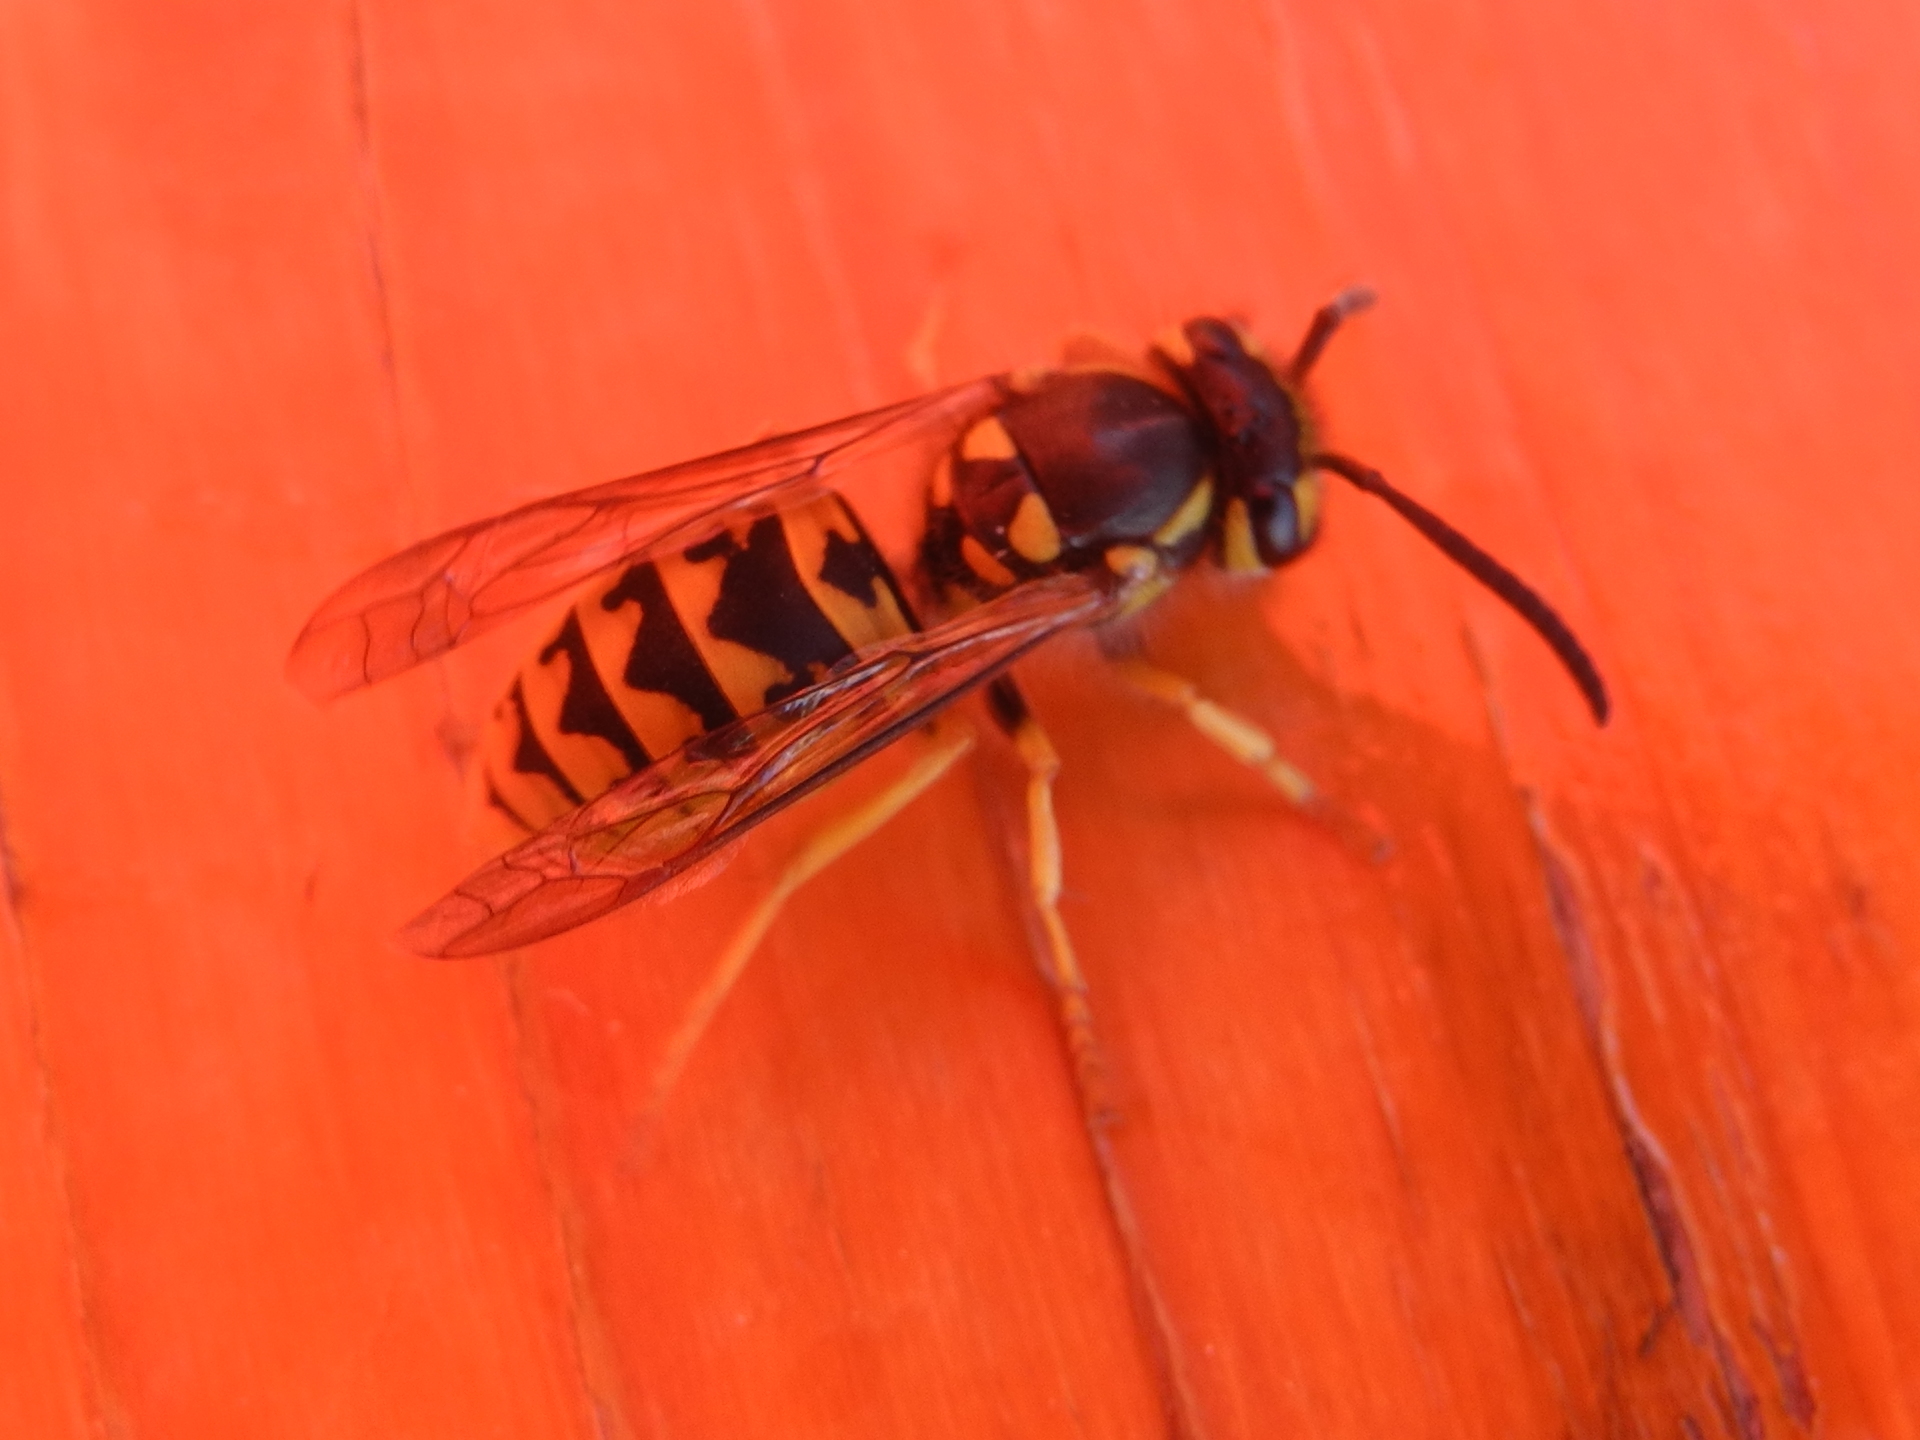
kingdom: Animalia
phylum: Arthropoda
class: Insecta
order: Hymenoptera
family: Vespidae
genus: Vespula
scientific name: Vespula germanica
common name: German wasp
